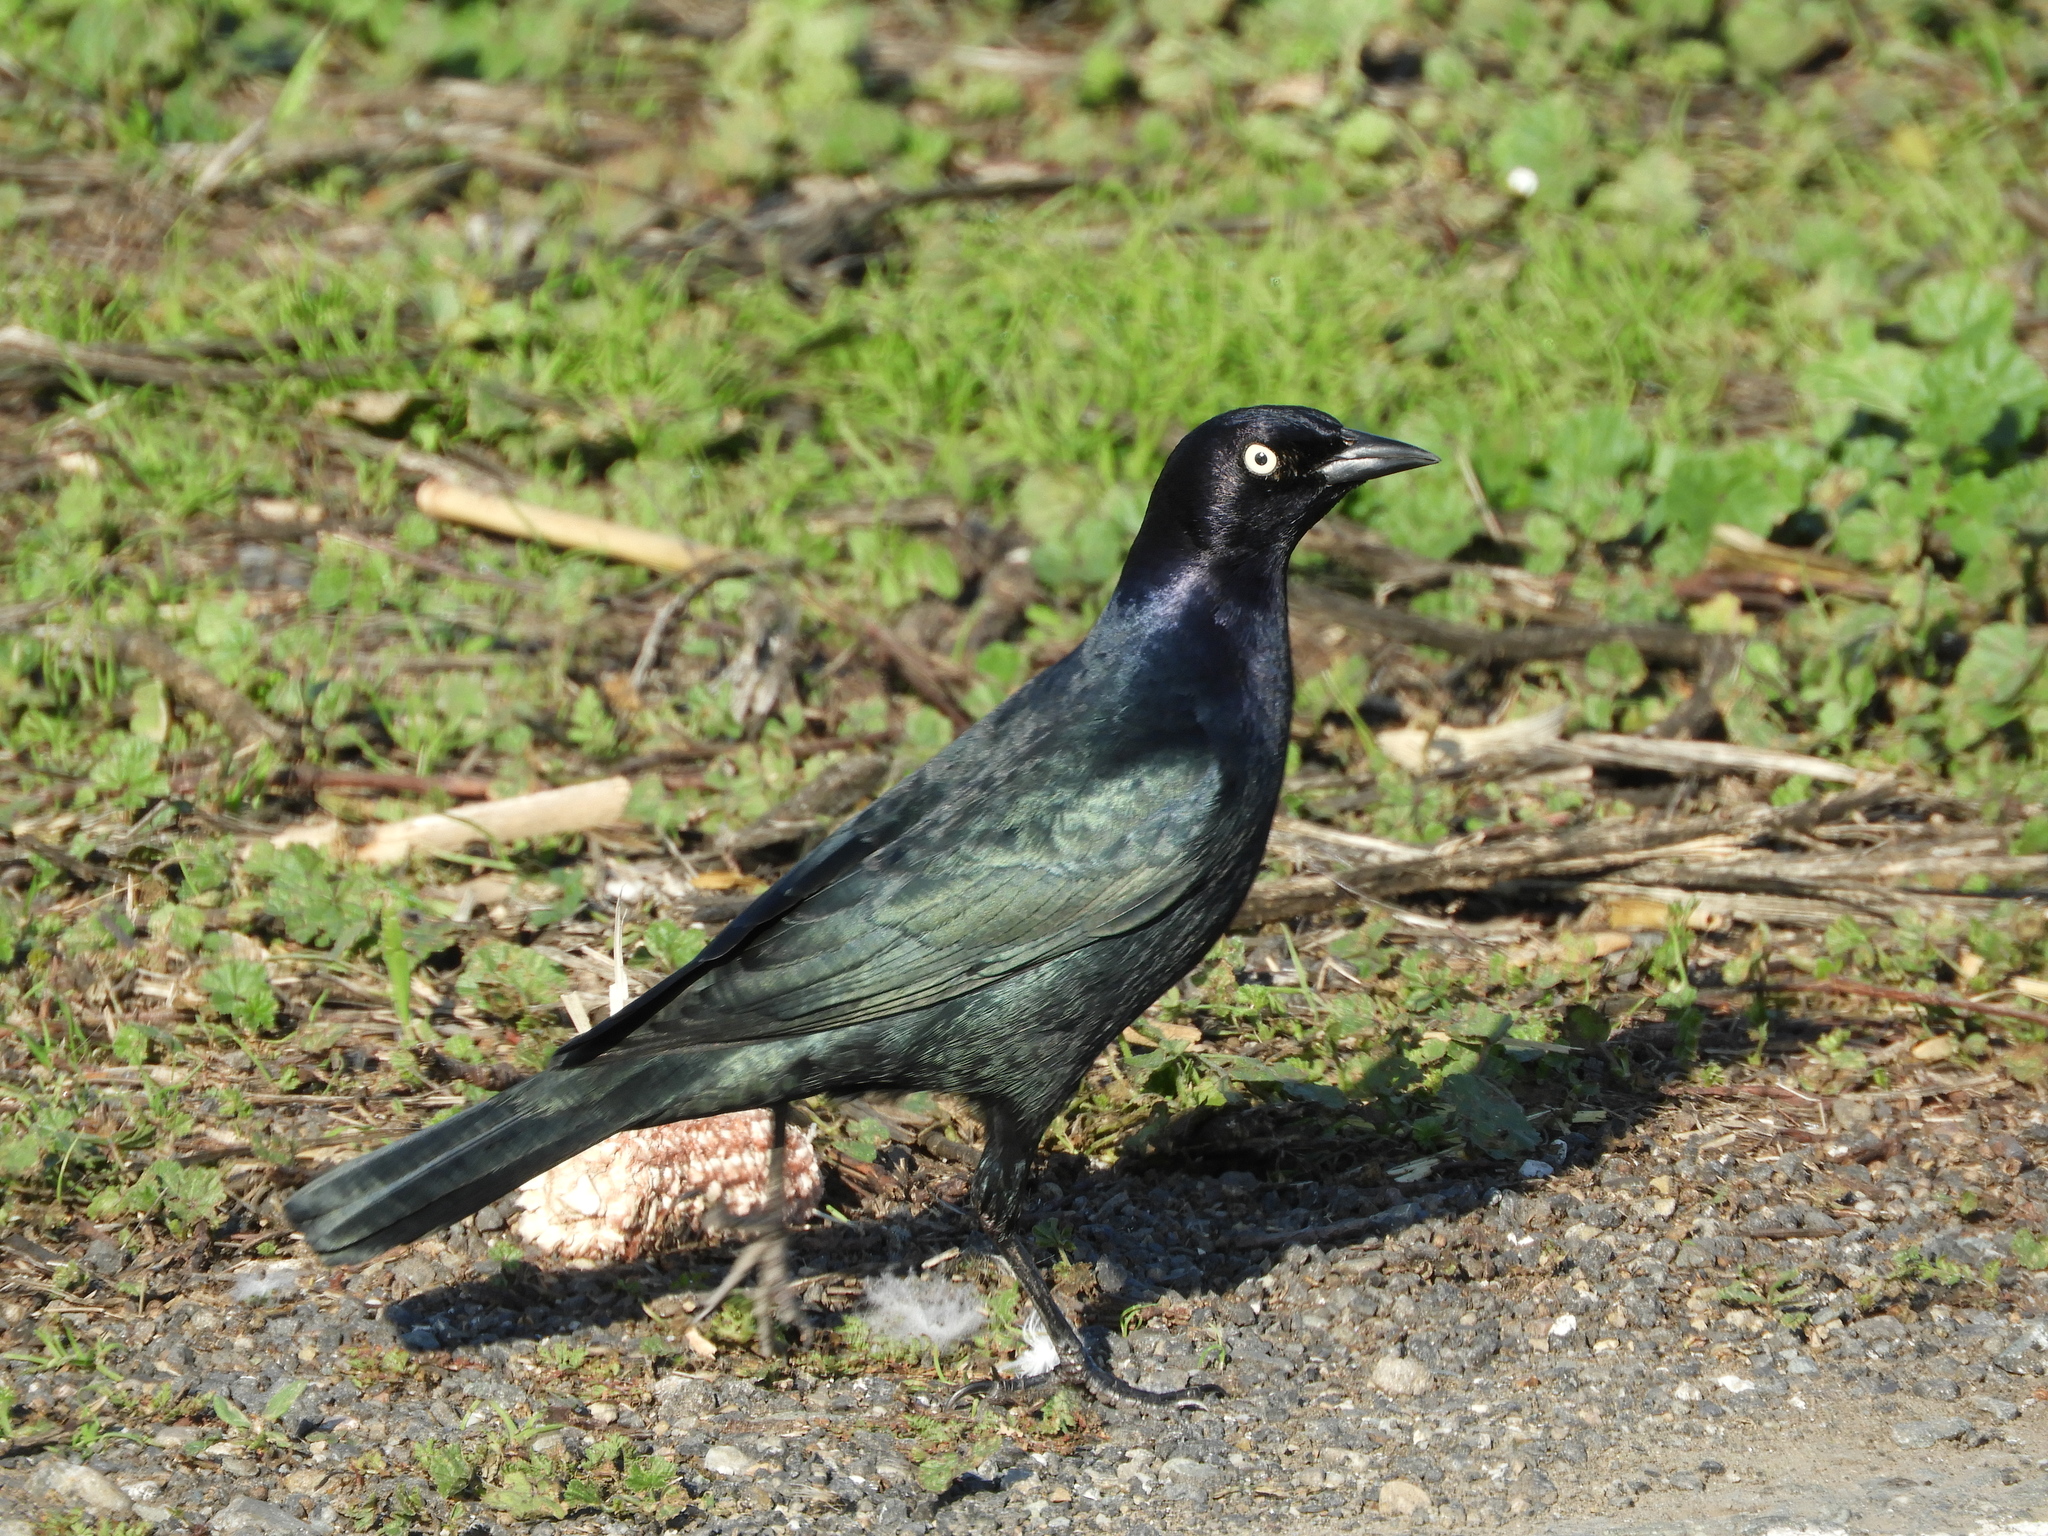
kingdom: Animalia
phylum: Chordata
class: Aves
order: Passeriformes
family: Icteridae
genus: Euphagus
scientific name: Euphagus cyanocephalus
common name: Brewer's blackbird
